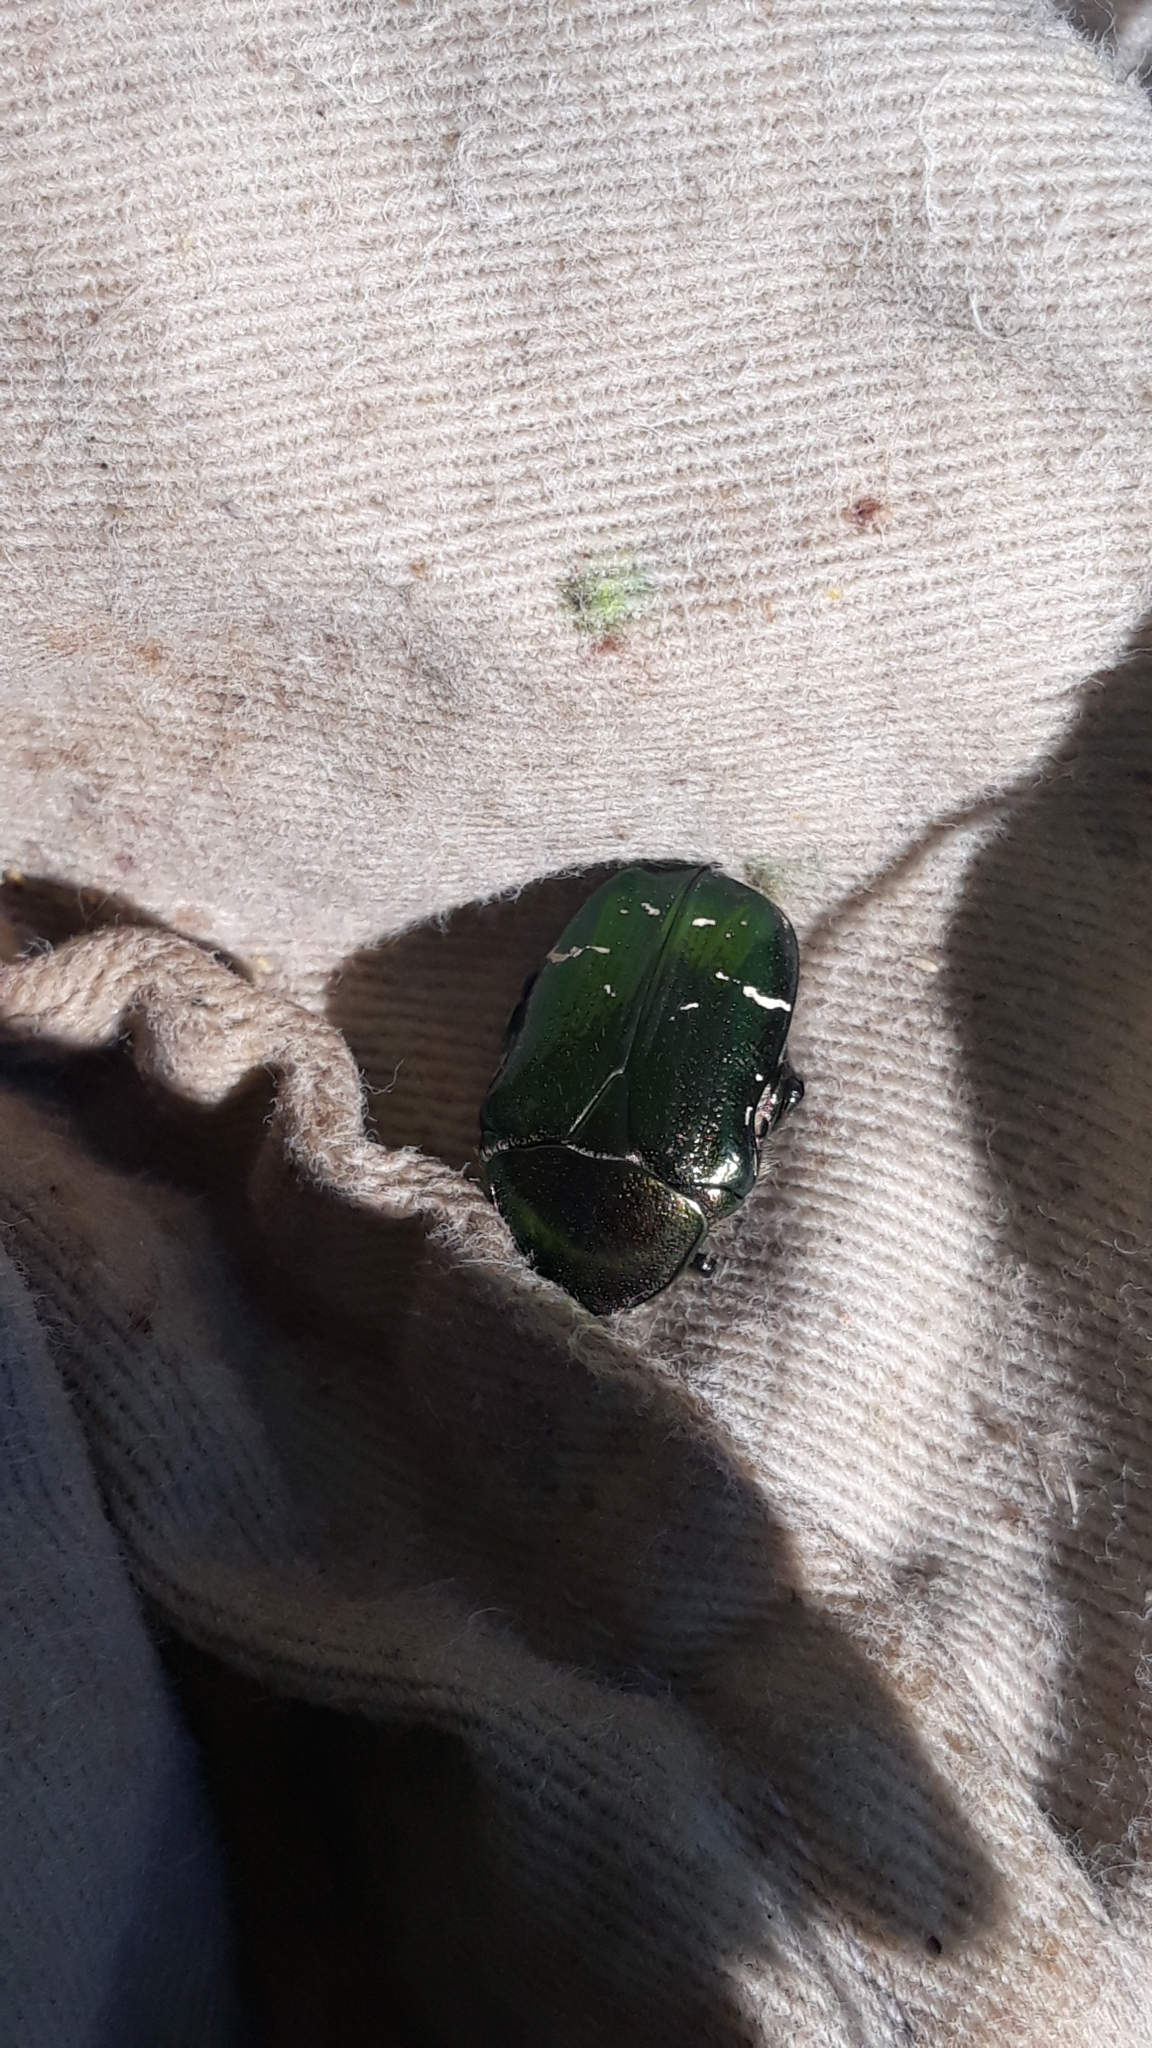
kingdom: Animalia
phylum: Arthropoda
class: Insecta
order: Coleoptera
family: Scarabaeidae
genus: Cetonia
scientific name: Cetonia aurata
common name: Rose chafer
